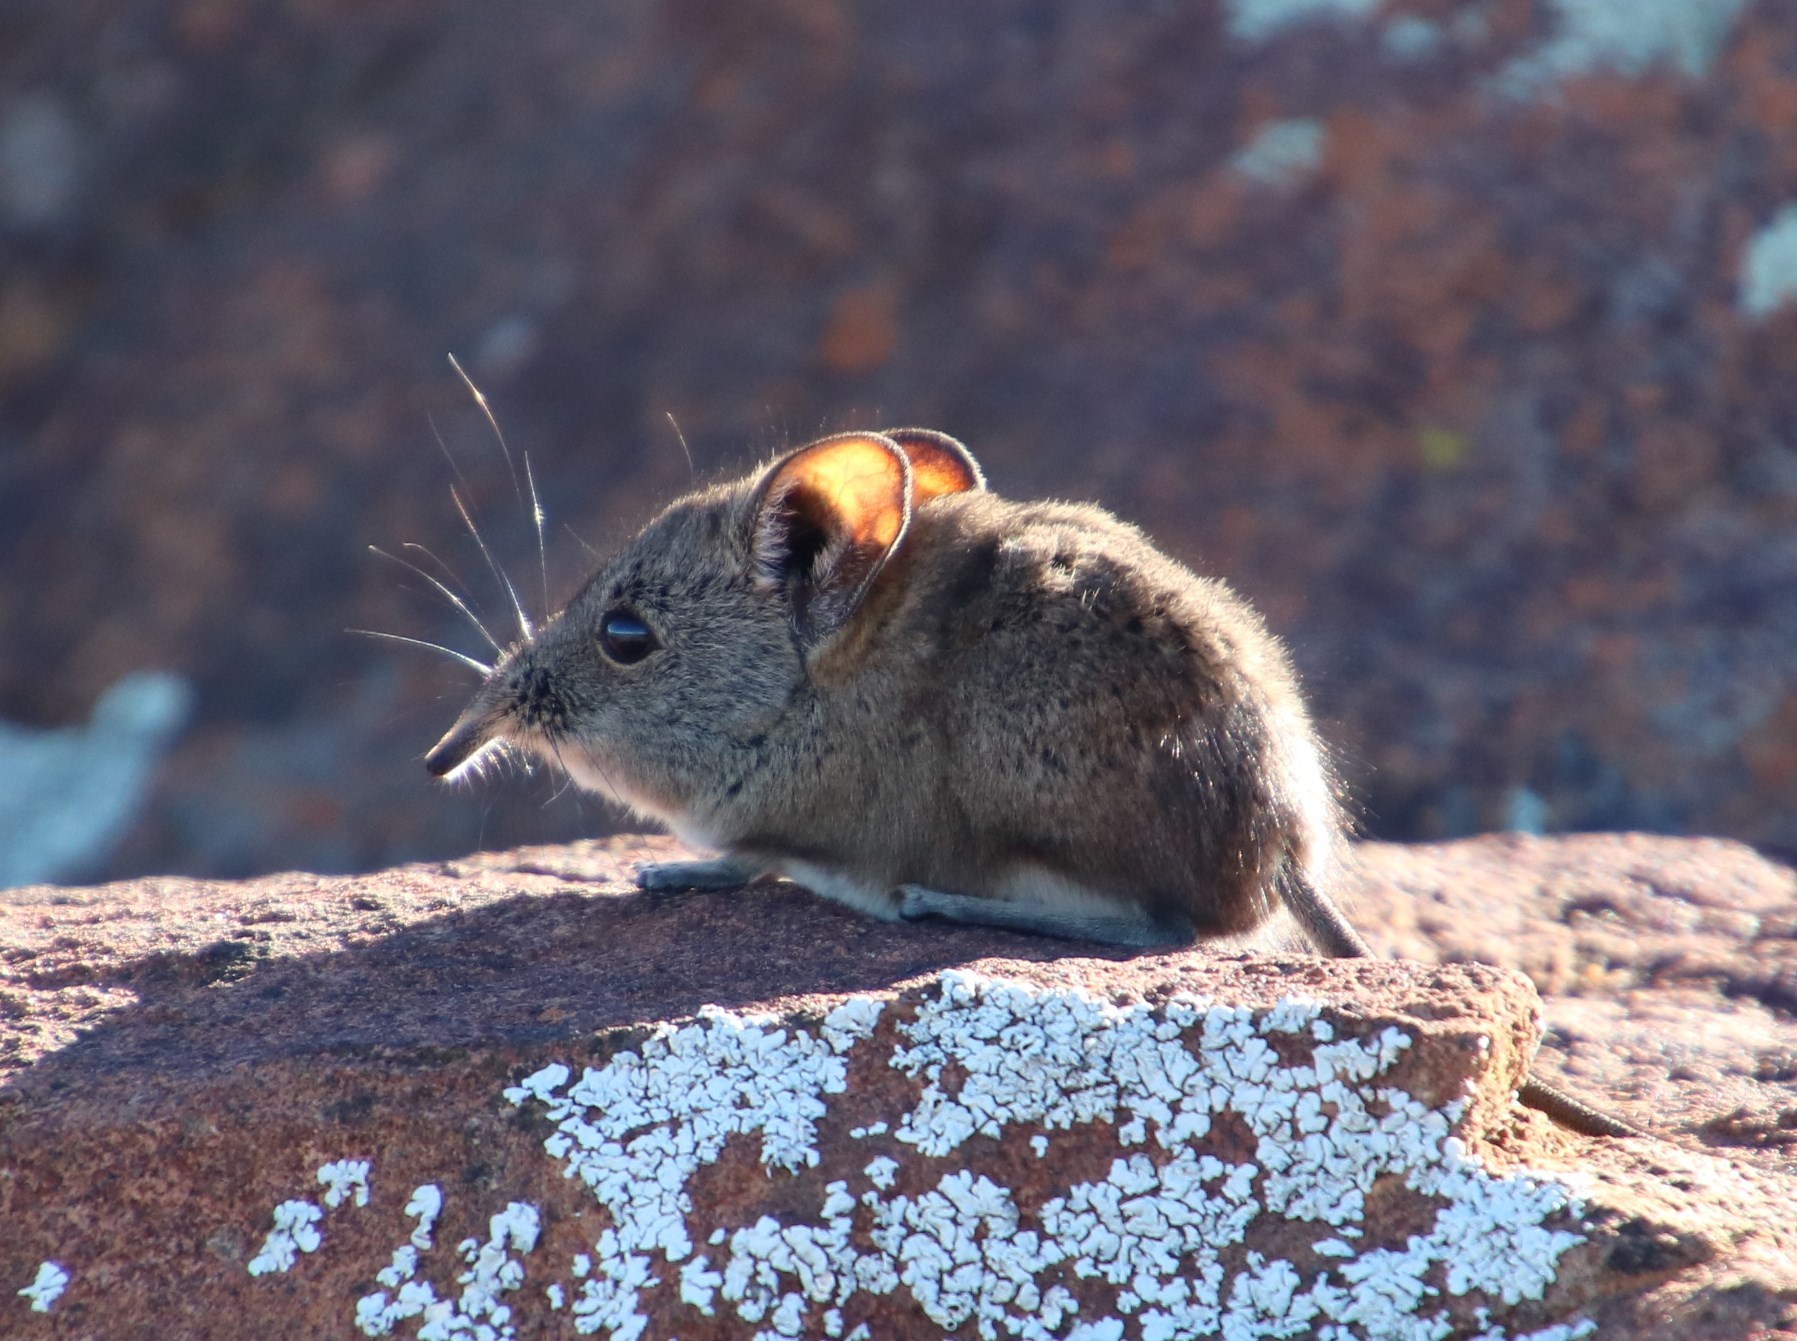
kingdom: Animalia
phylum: Chordata
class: Mammalia
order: Macroscelidea
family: Macroscelididae
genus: Elephantulus
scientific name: Elephantulus pilicaudus
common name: Karoo rock sengi
